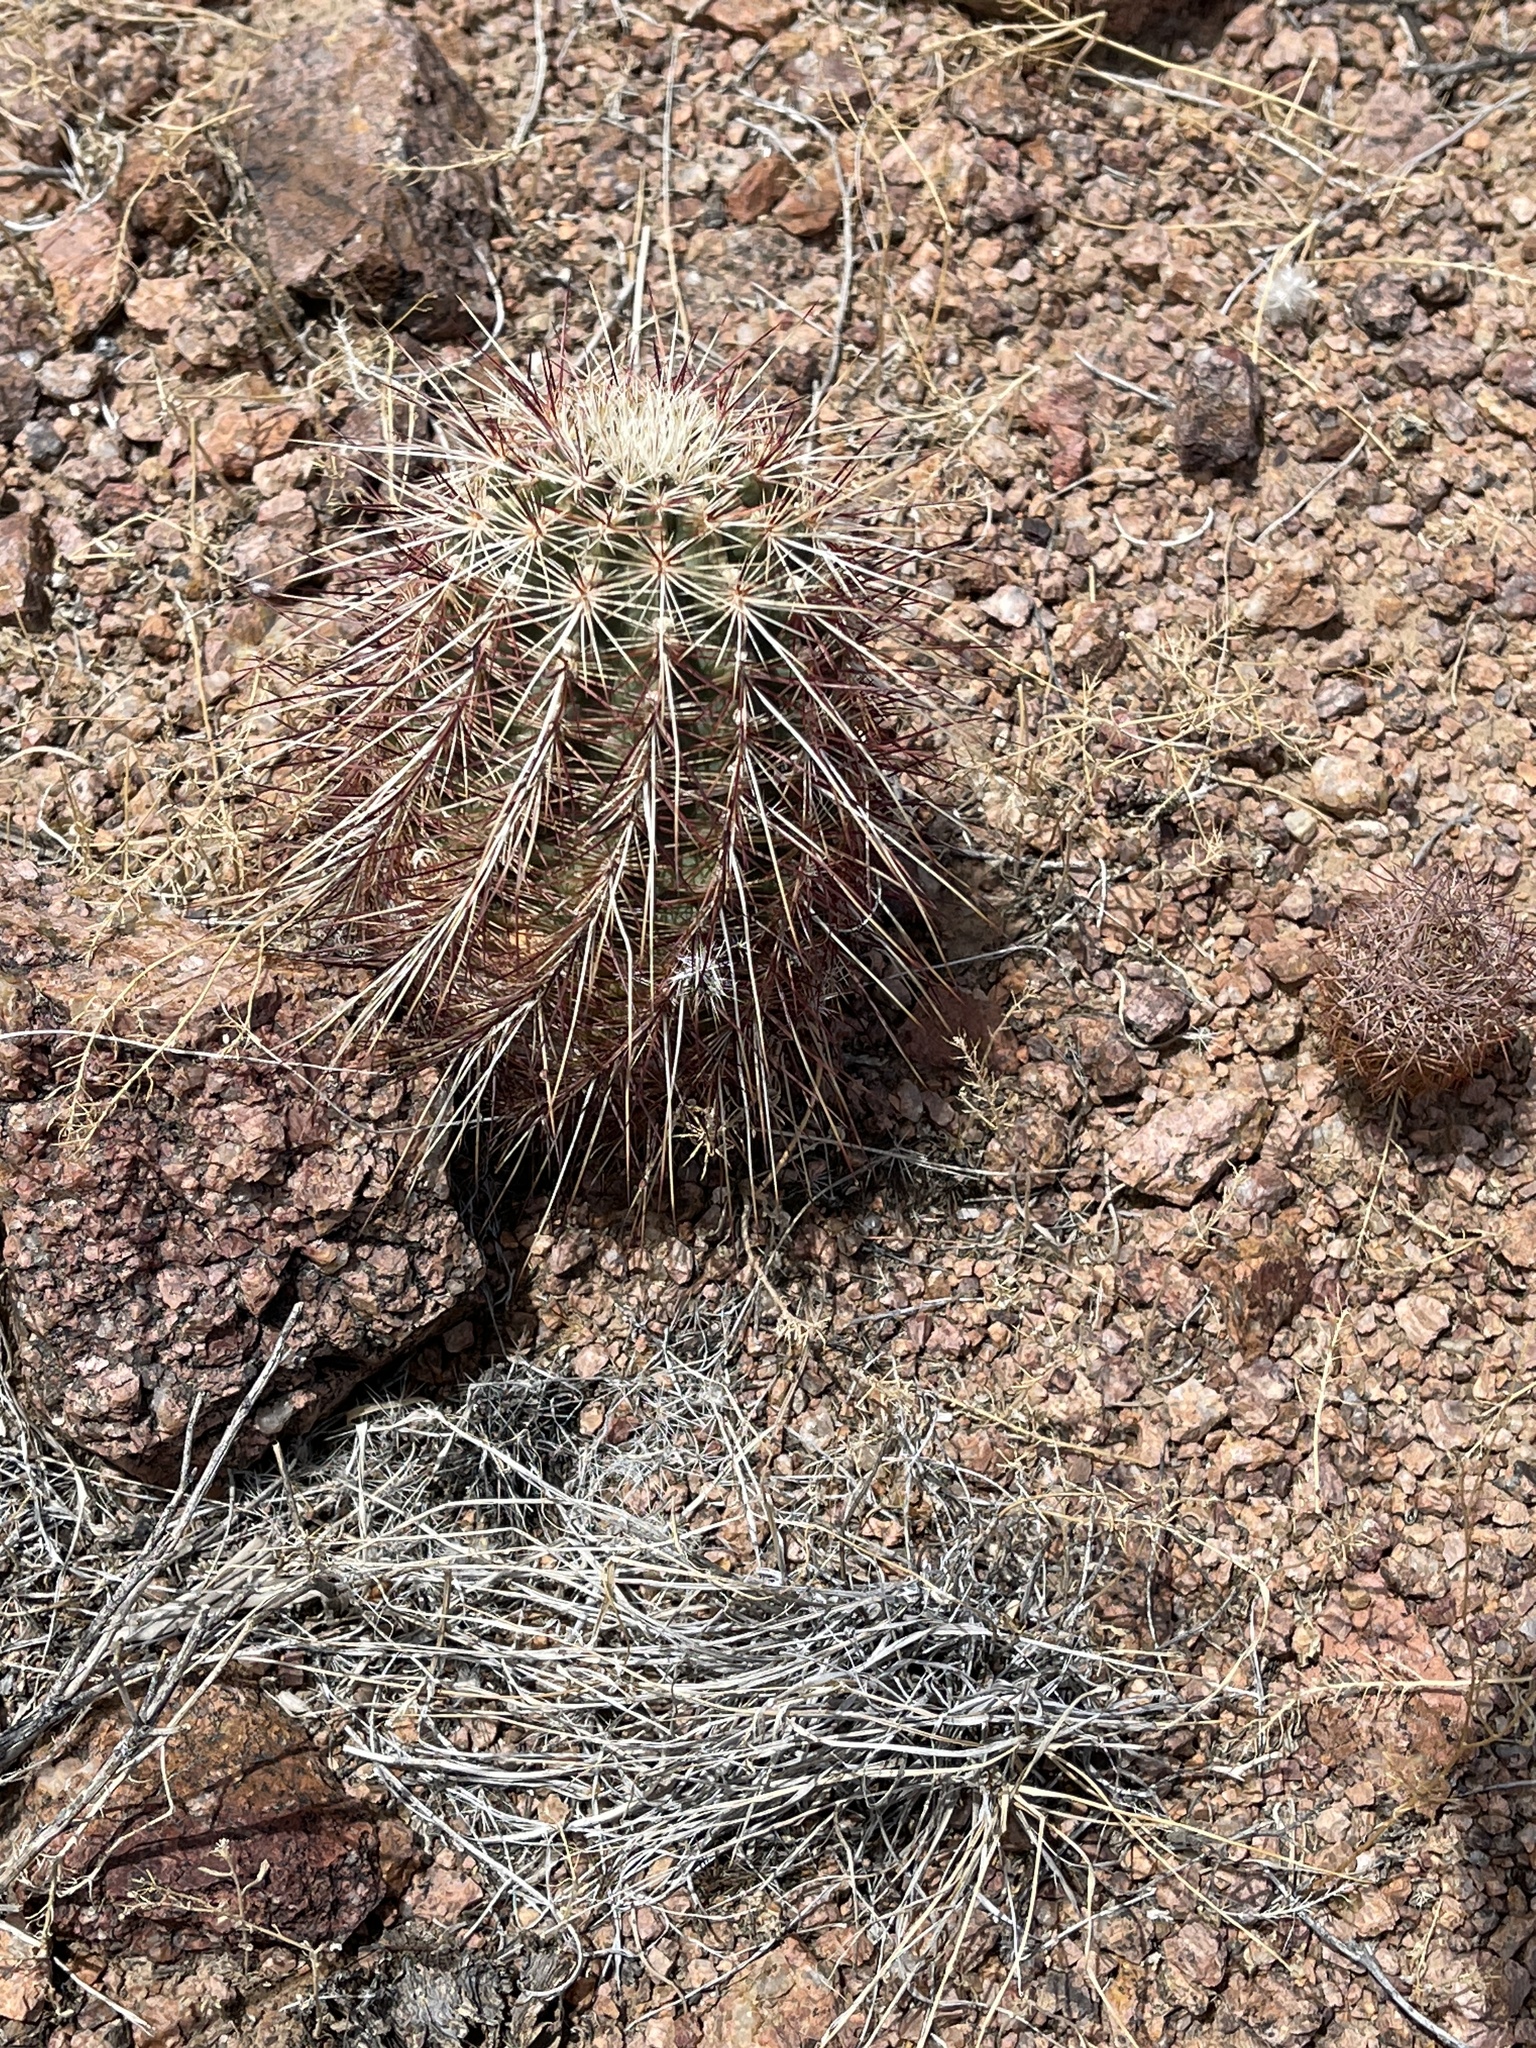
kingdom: Plantae
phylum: Tracheophyta
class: Magnoliopsida
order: Caryophyllales
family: Cactaceae
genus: Echinocereus
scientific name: Echinocereus viridiflorus
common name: Nylon hedgehog cactus
